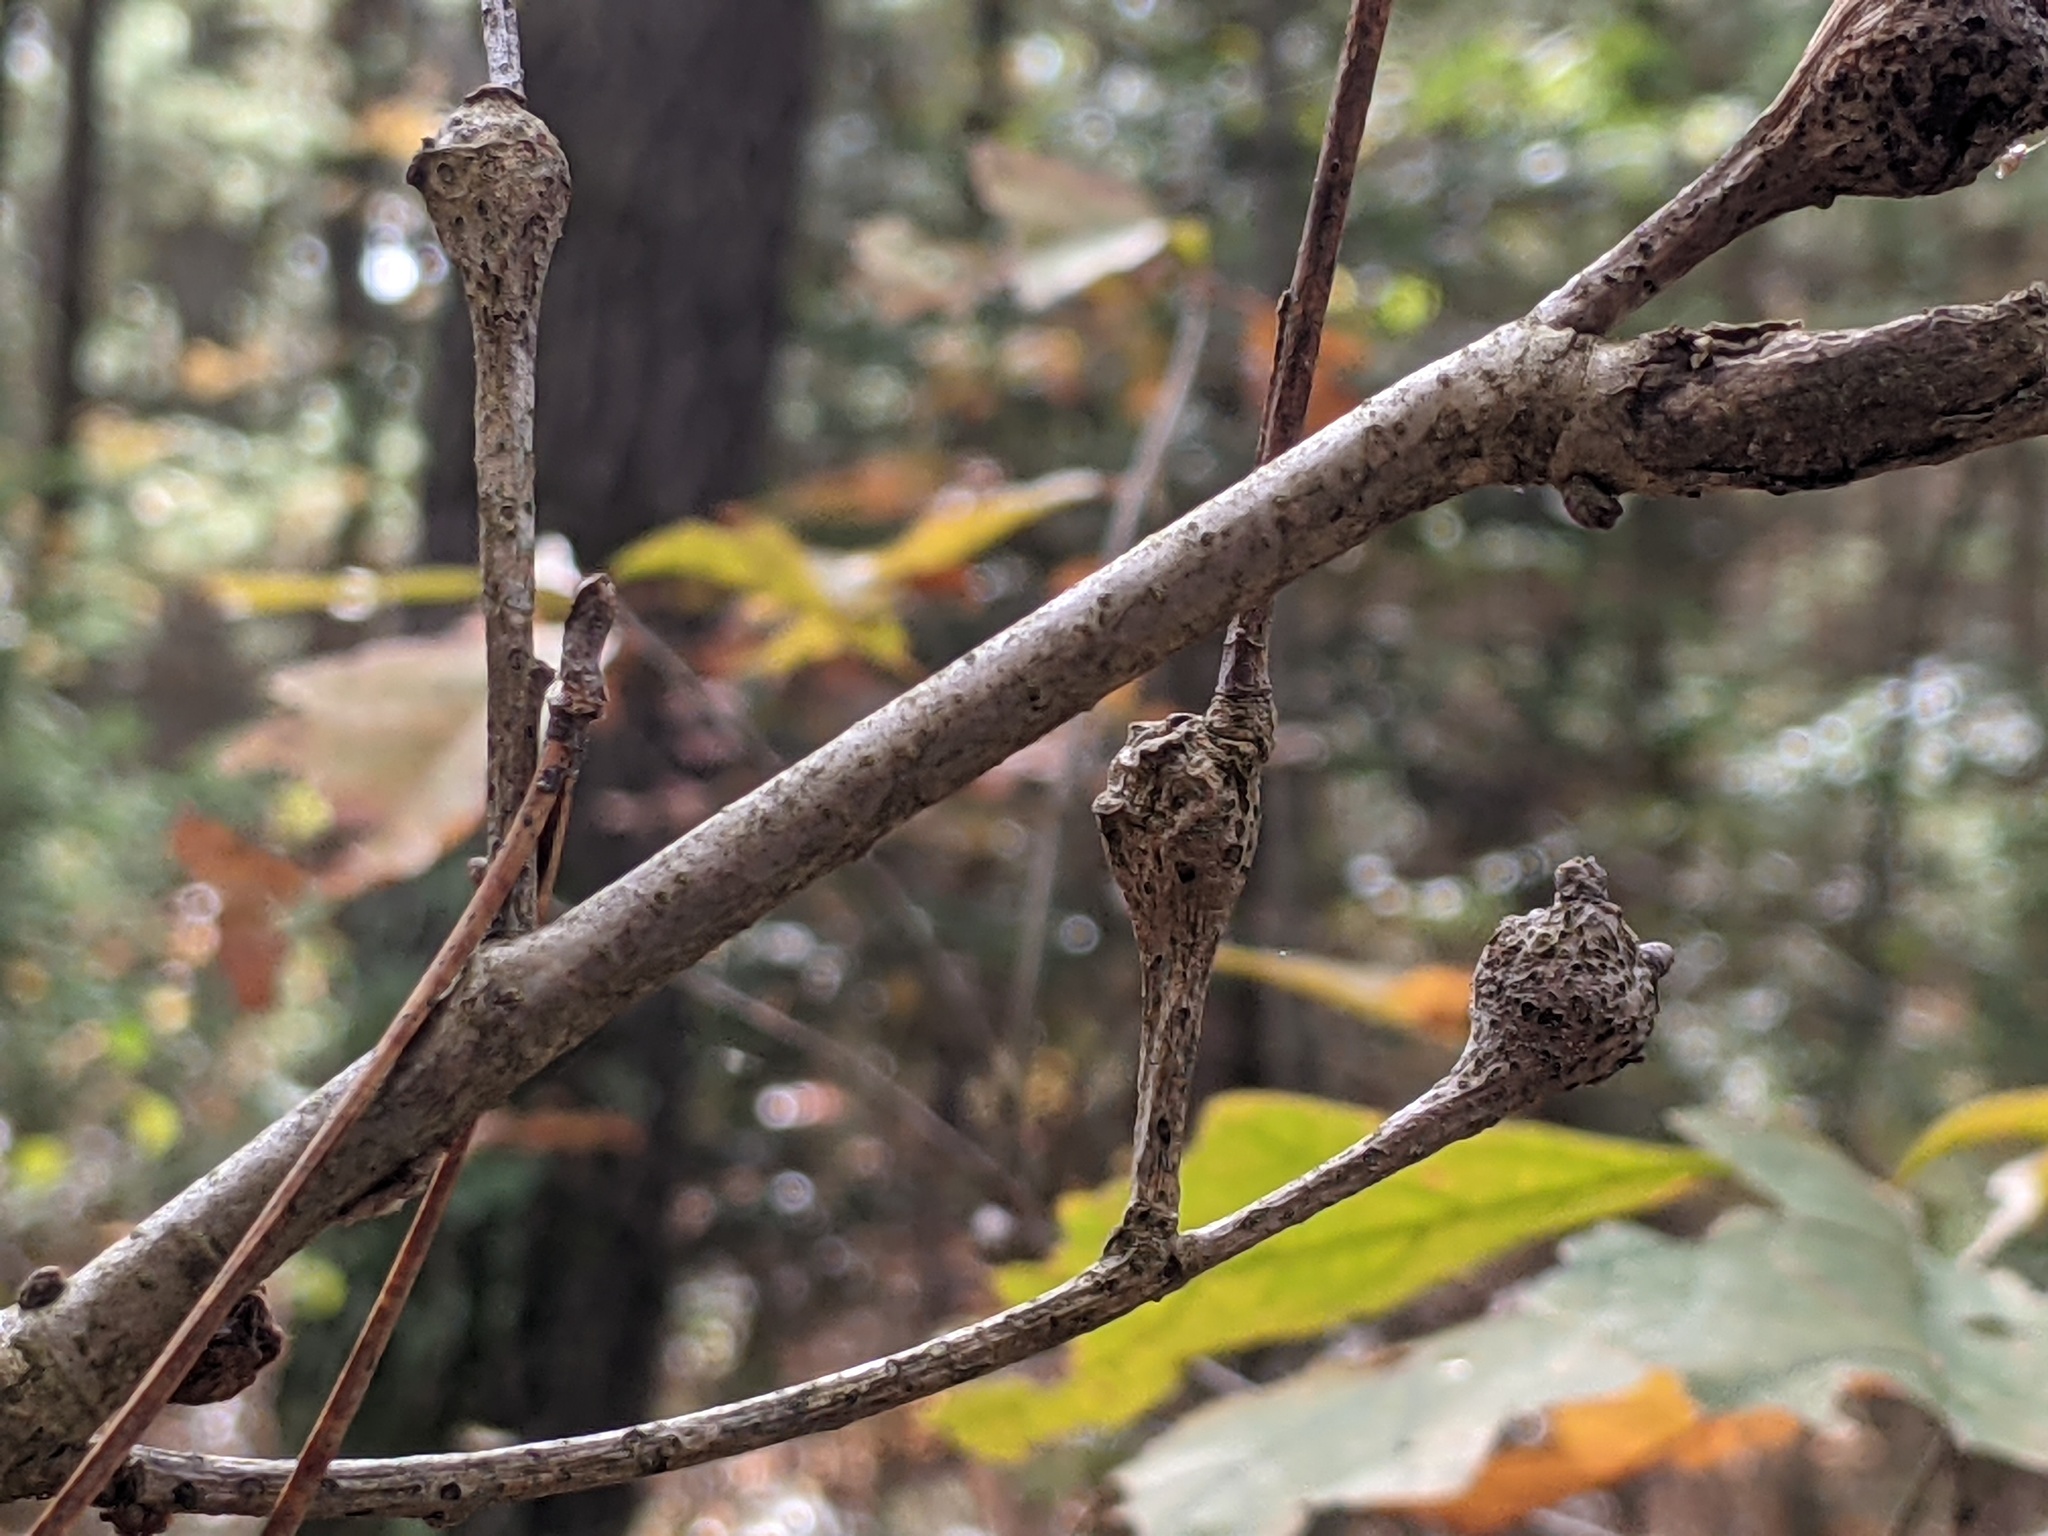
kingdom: Animalia
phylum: Arthropoda
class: Insecta
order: Hymenoptera
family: Cynipidae
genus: Callirhytis
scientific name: Callirhytis clavula
